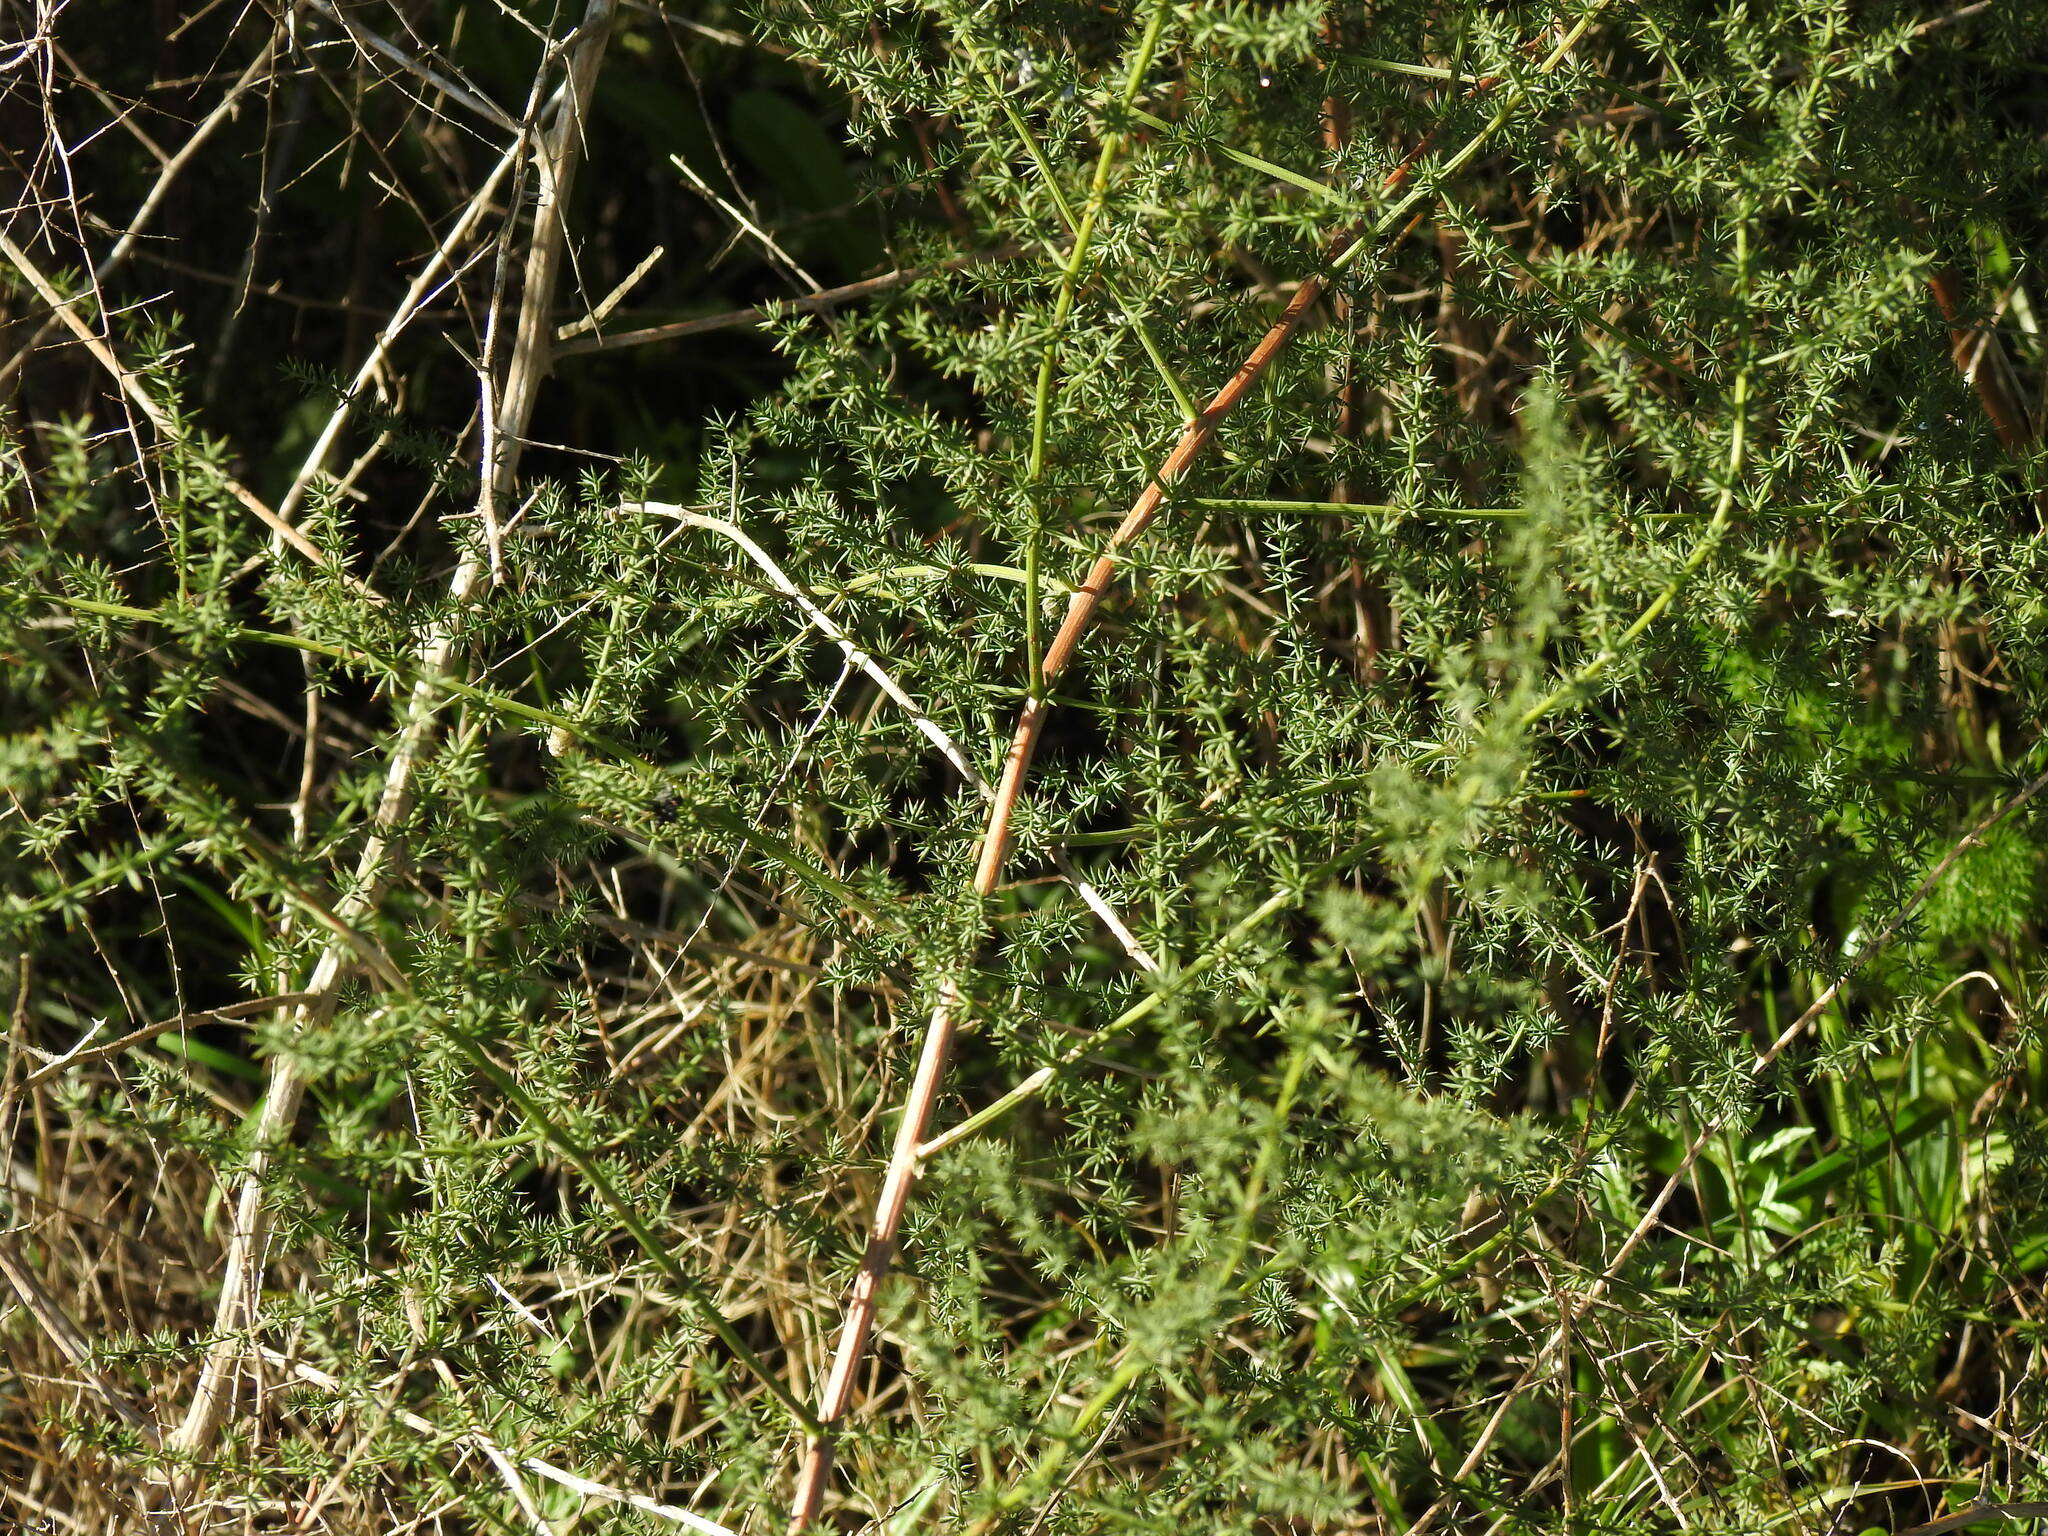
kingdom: Plantae
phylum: Tracheophyta
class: Liliopsida
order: Asparagales
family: Asparagaceae
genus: Asparagus
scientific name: Asparagus acutifolius
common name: Wild asparagus
